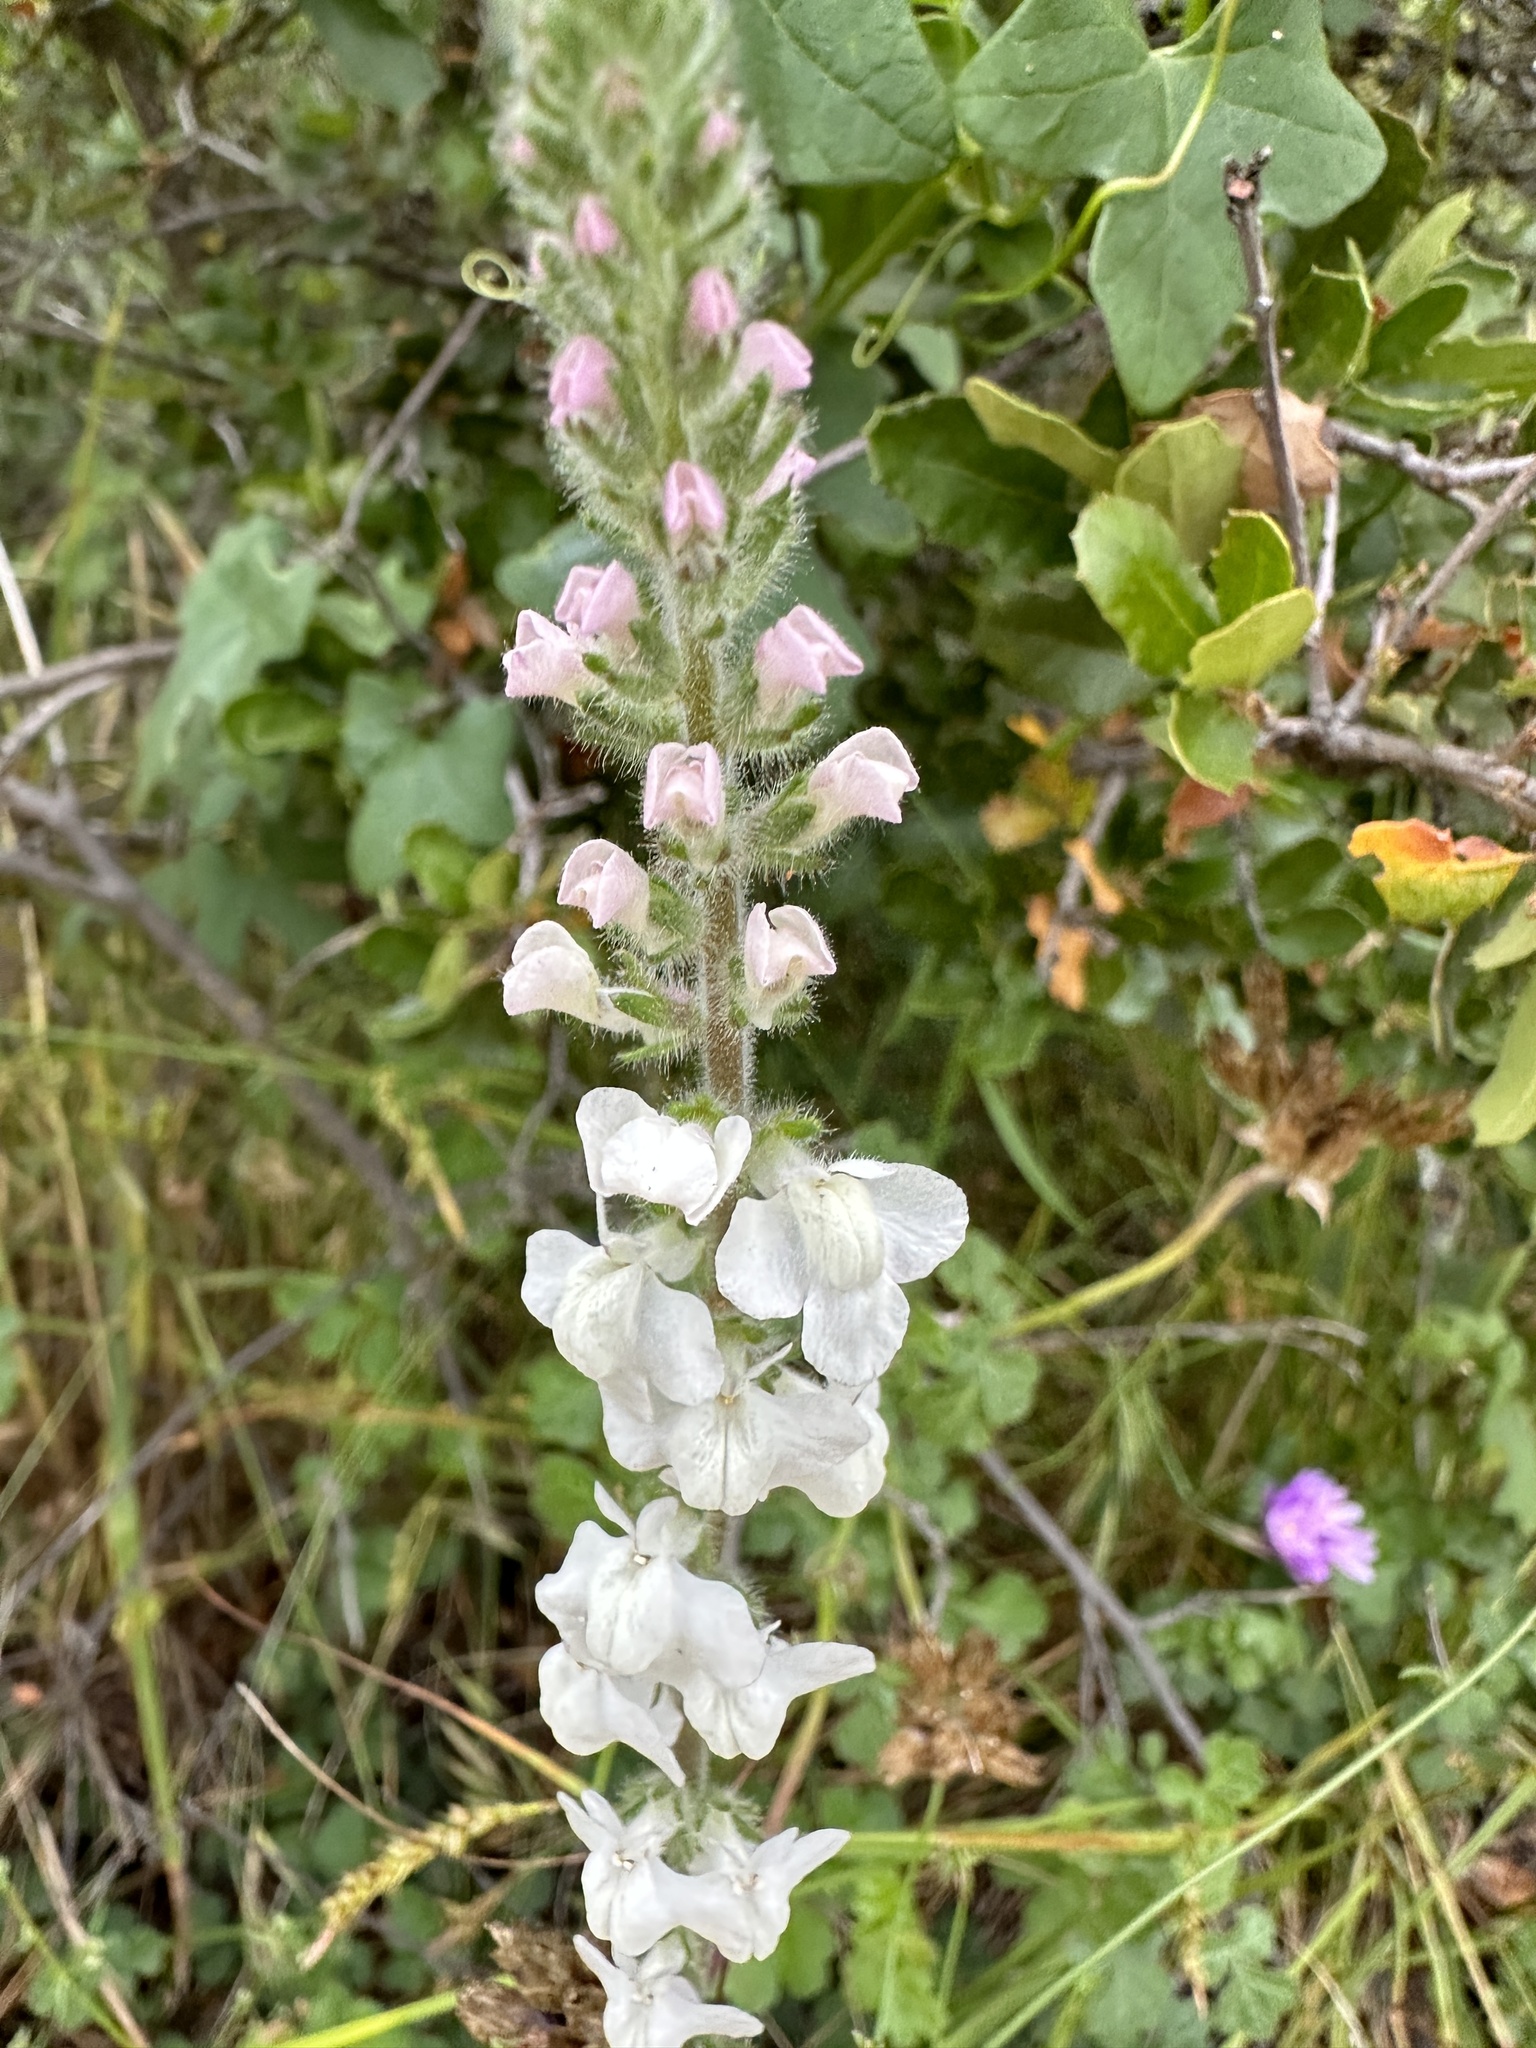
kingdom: Plantae
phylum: Tracheophyta
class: Magnoliopsida
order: Lamiales
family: Plantaginaceae
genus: Sairocarpus
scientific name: Sairocarpus coulterianus
